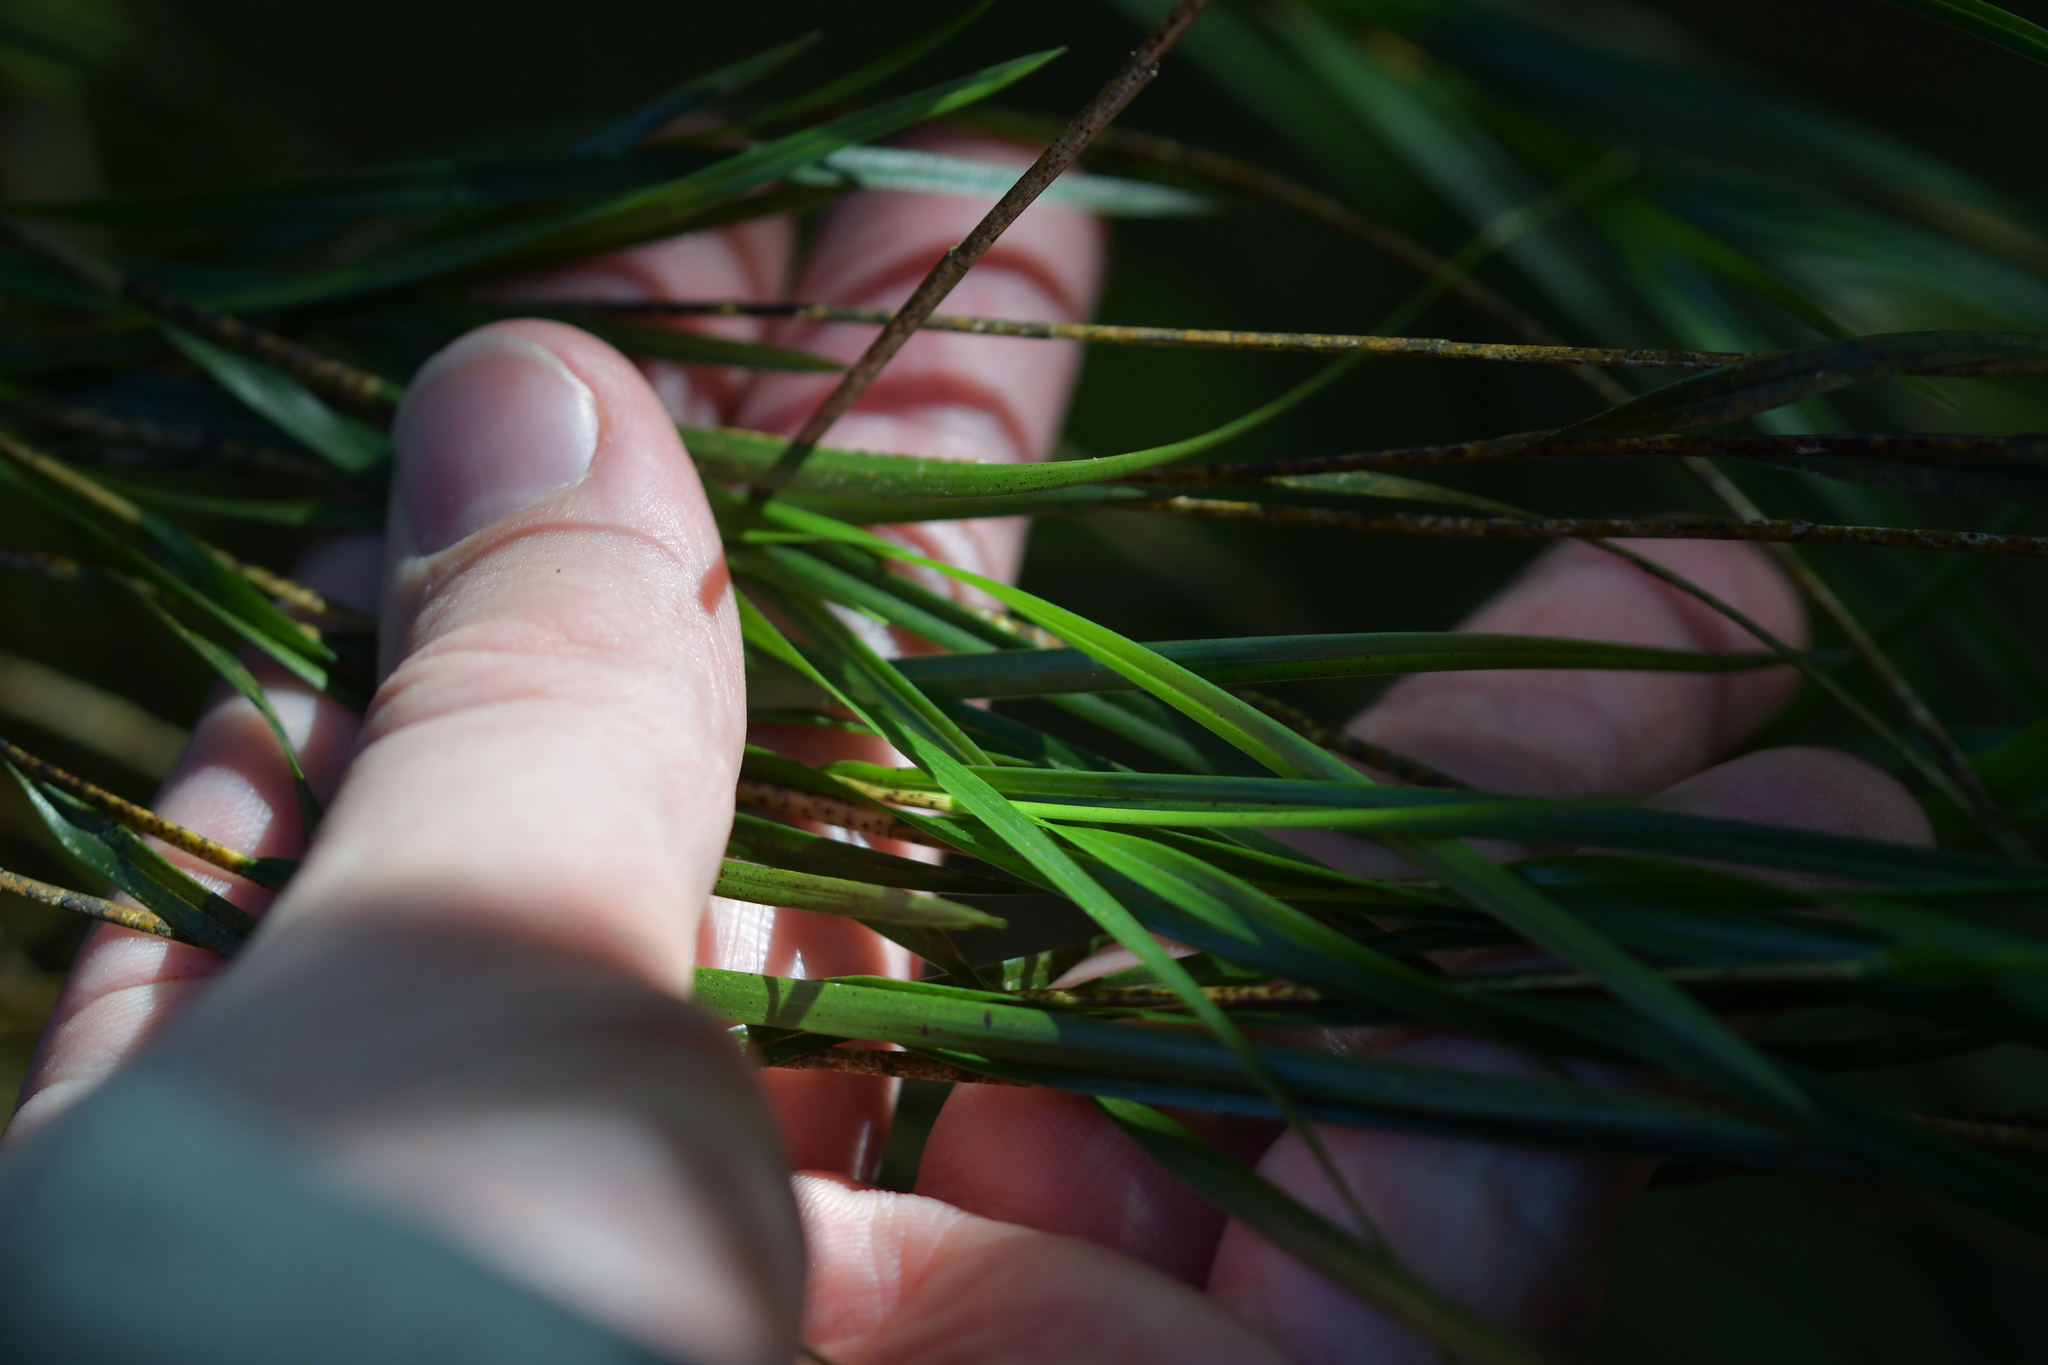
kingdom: Plantae
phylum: Tracheophyta
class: Liliopsida
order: Asparagales
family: Orchidaceae
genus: Earina
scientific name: Earina mucronata
